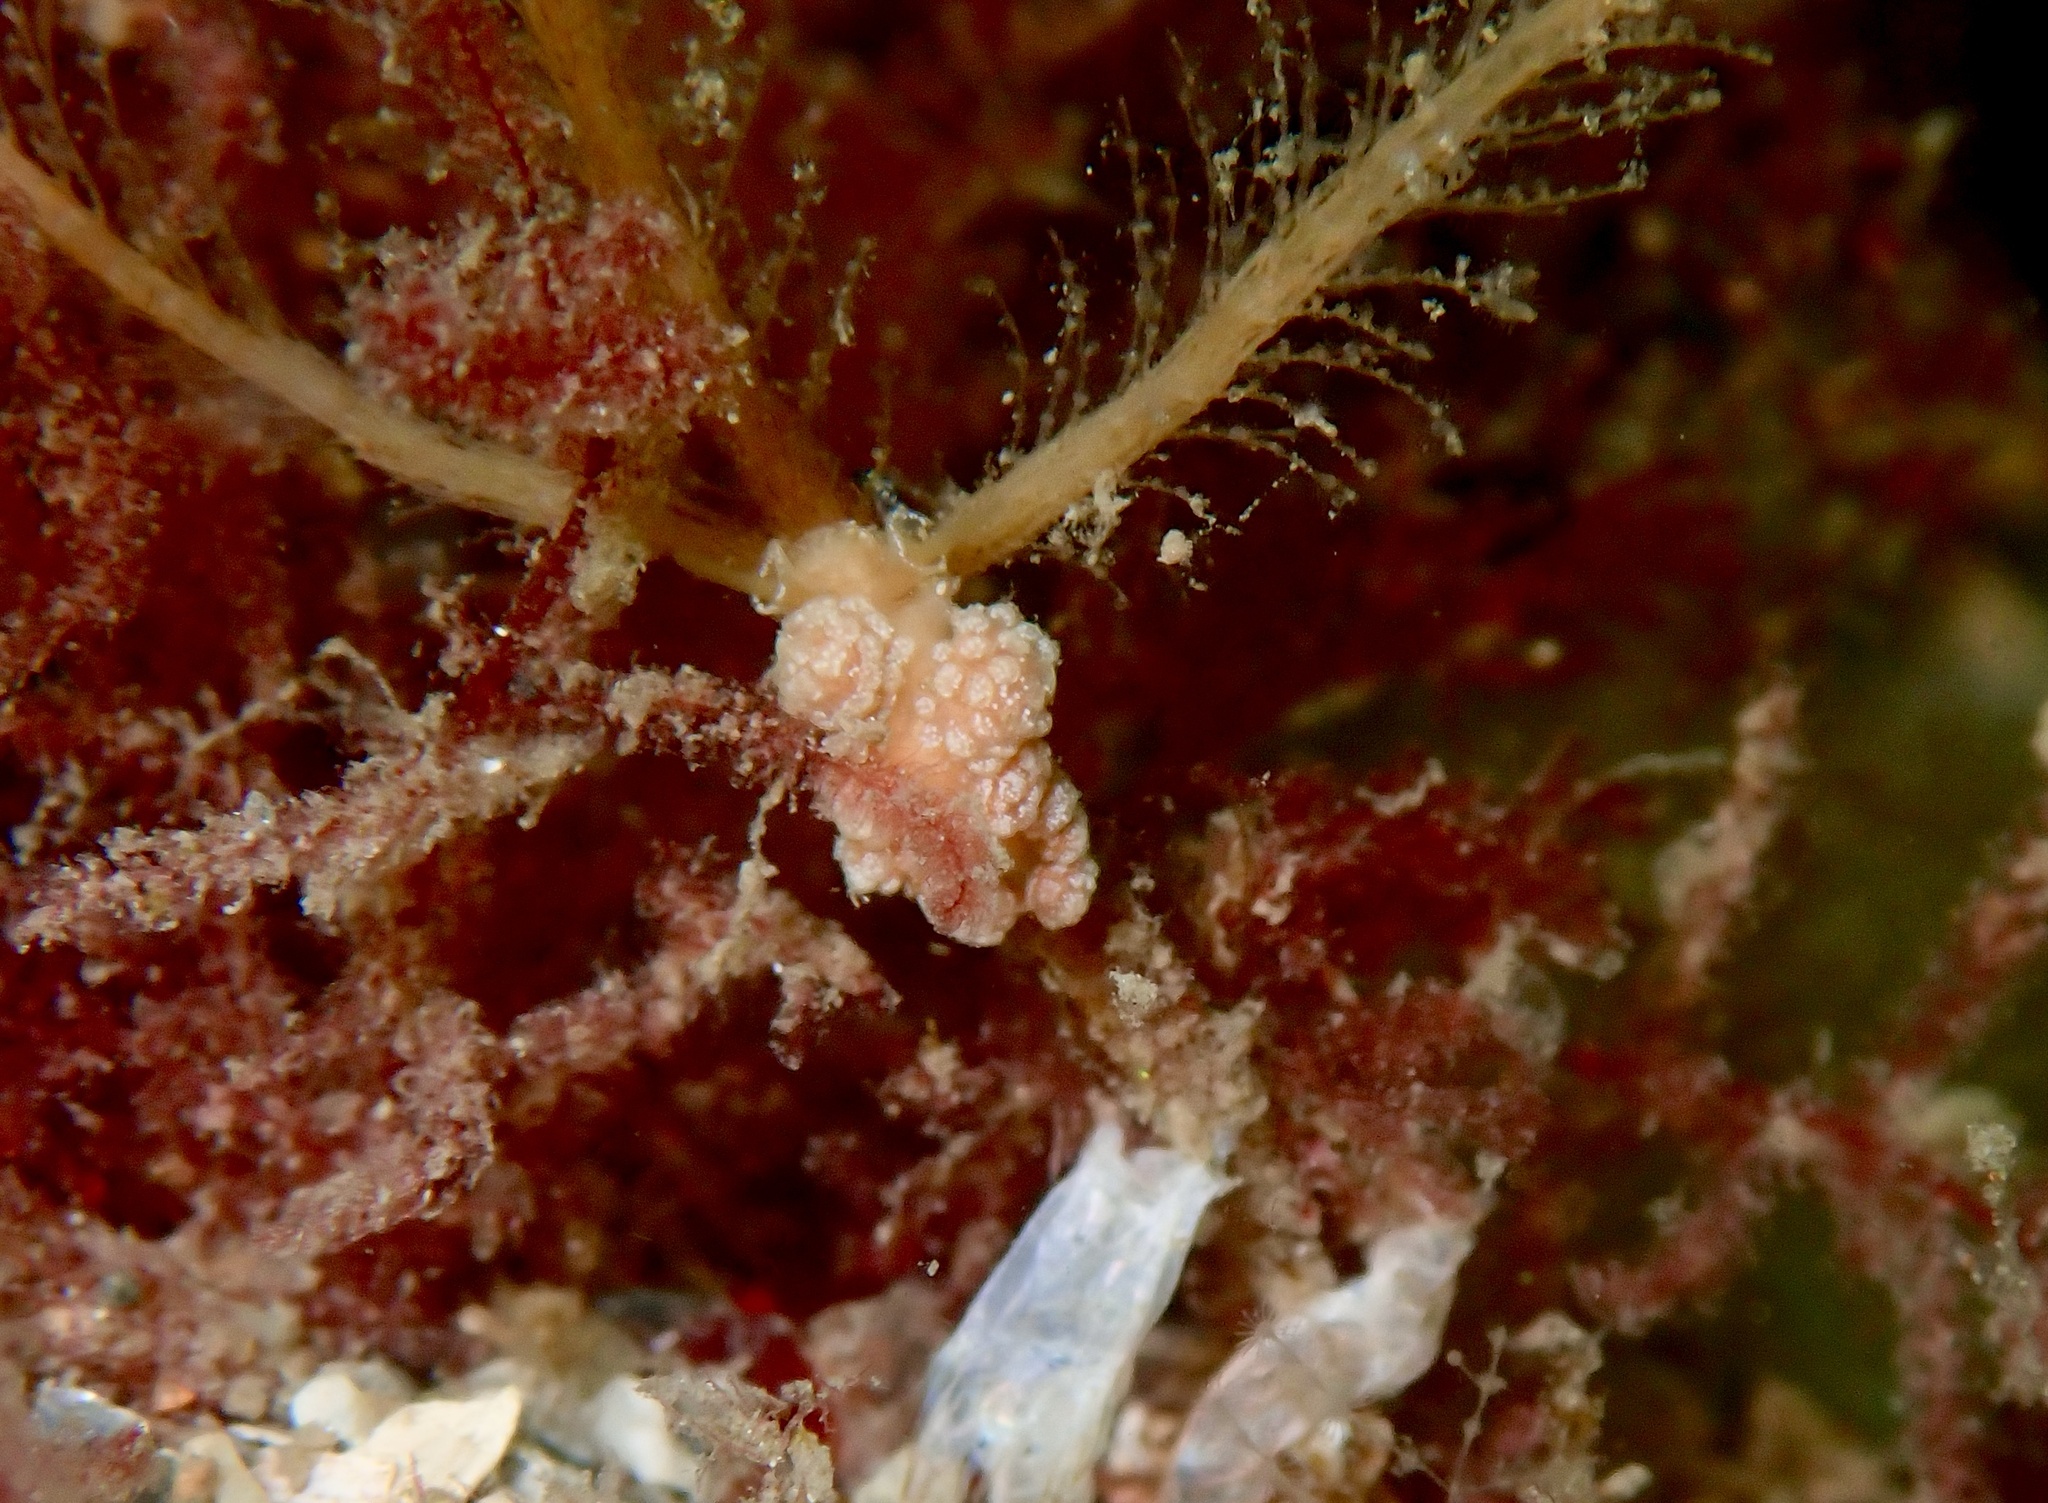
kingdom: Animalia
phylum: Mollusca
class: Gastropoda
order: Nudibranchia
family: Dotidae
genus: Doto
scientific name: Doto fragilis
